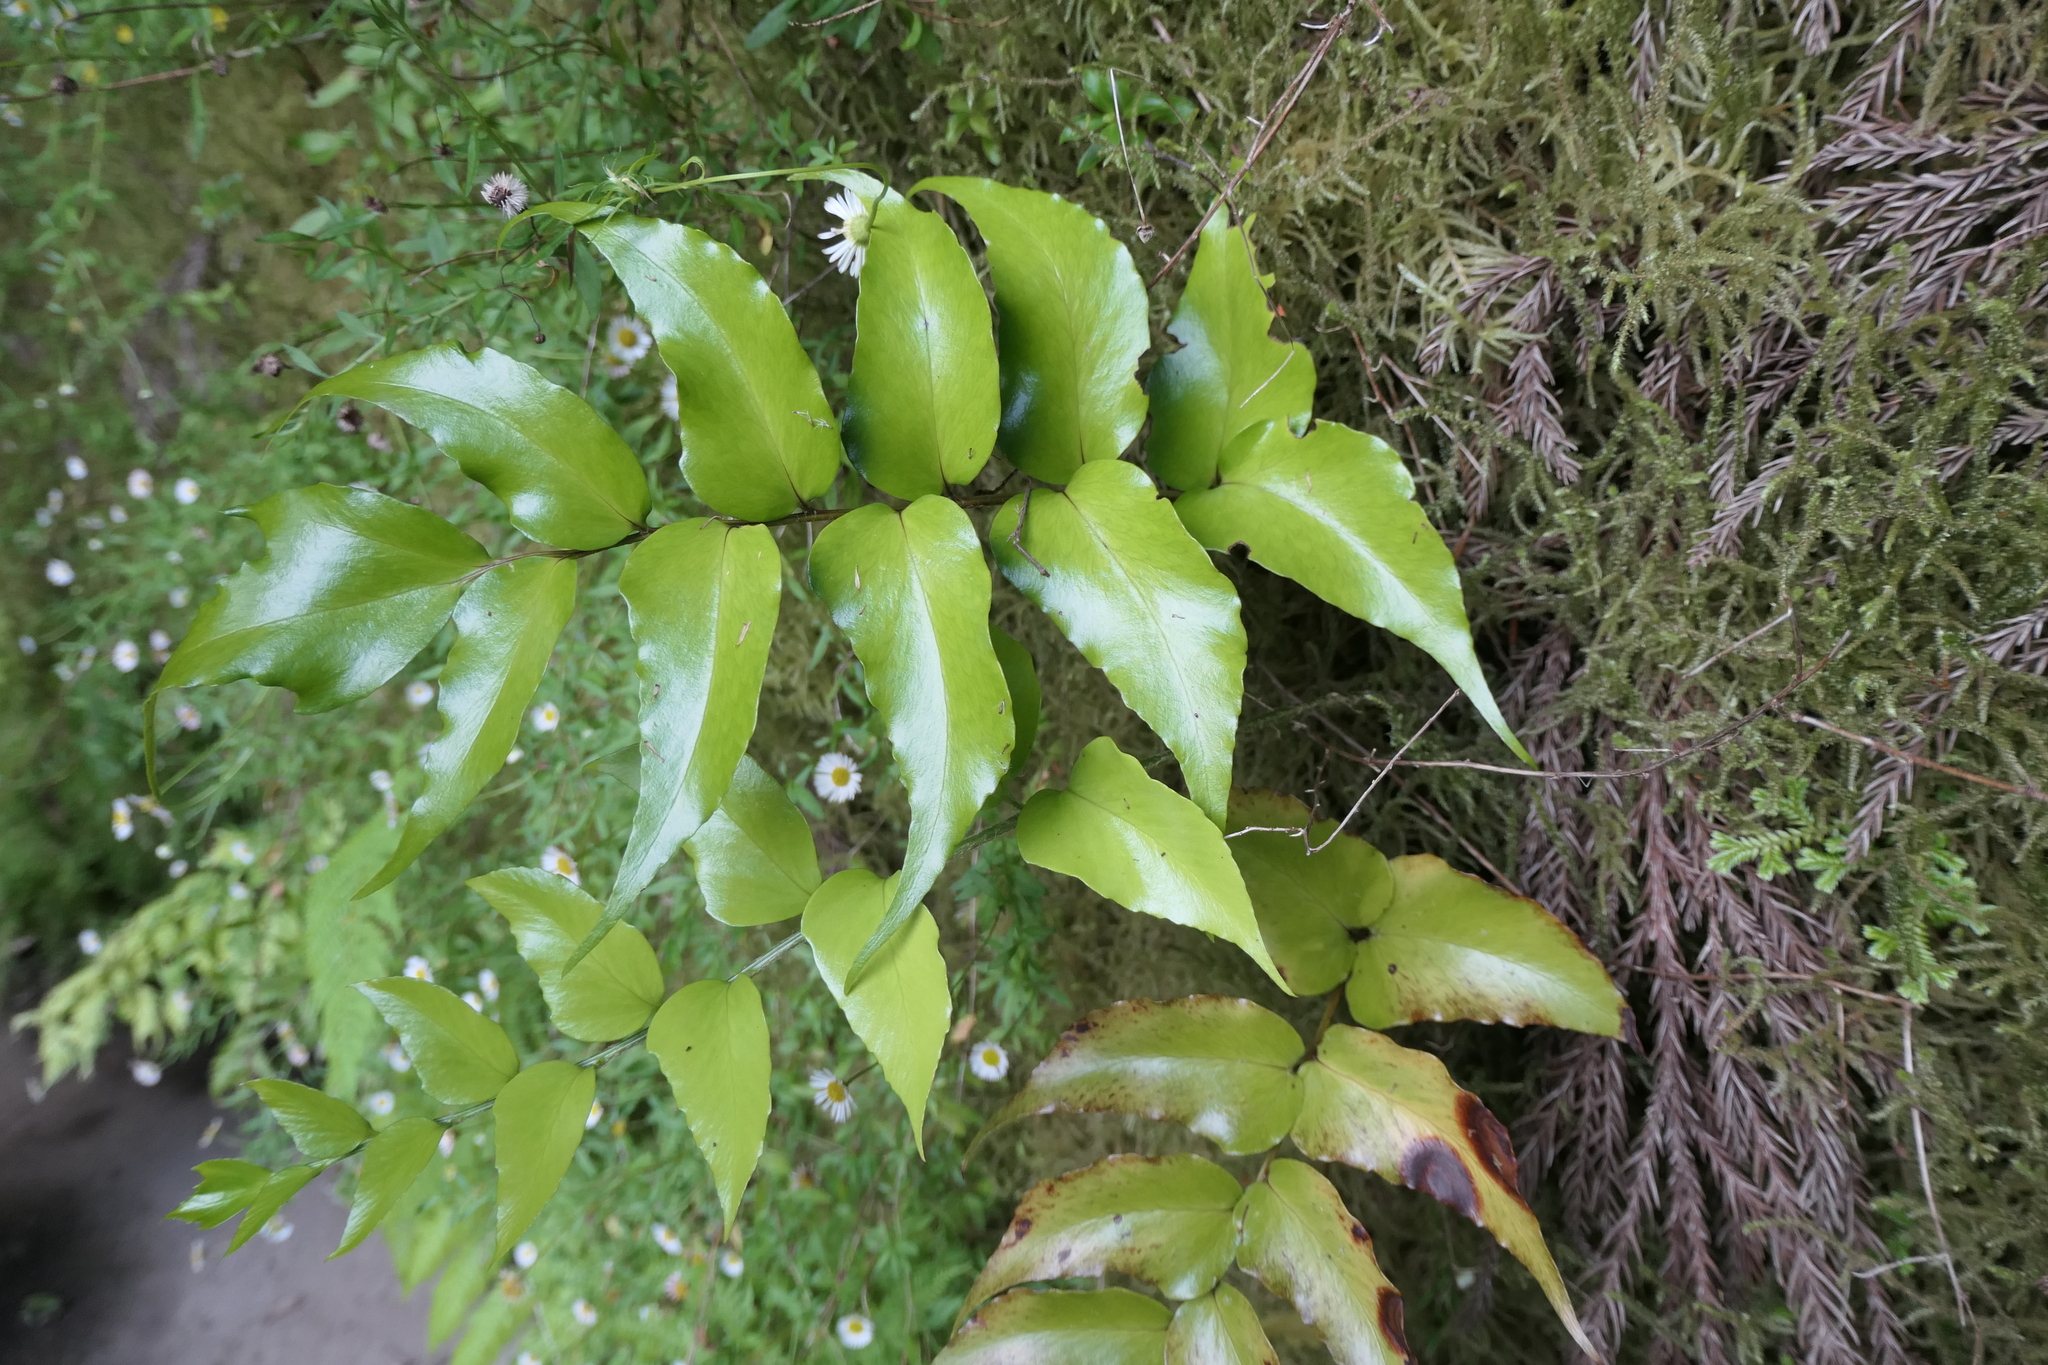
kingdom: Plantae
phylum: Tracheophyta
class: Polypodiopsida
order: Polypodiales
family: Dryopteridaceae
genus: Cyrtomium
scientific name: Cyrtomium falcatum
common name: House holly-fern
